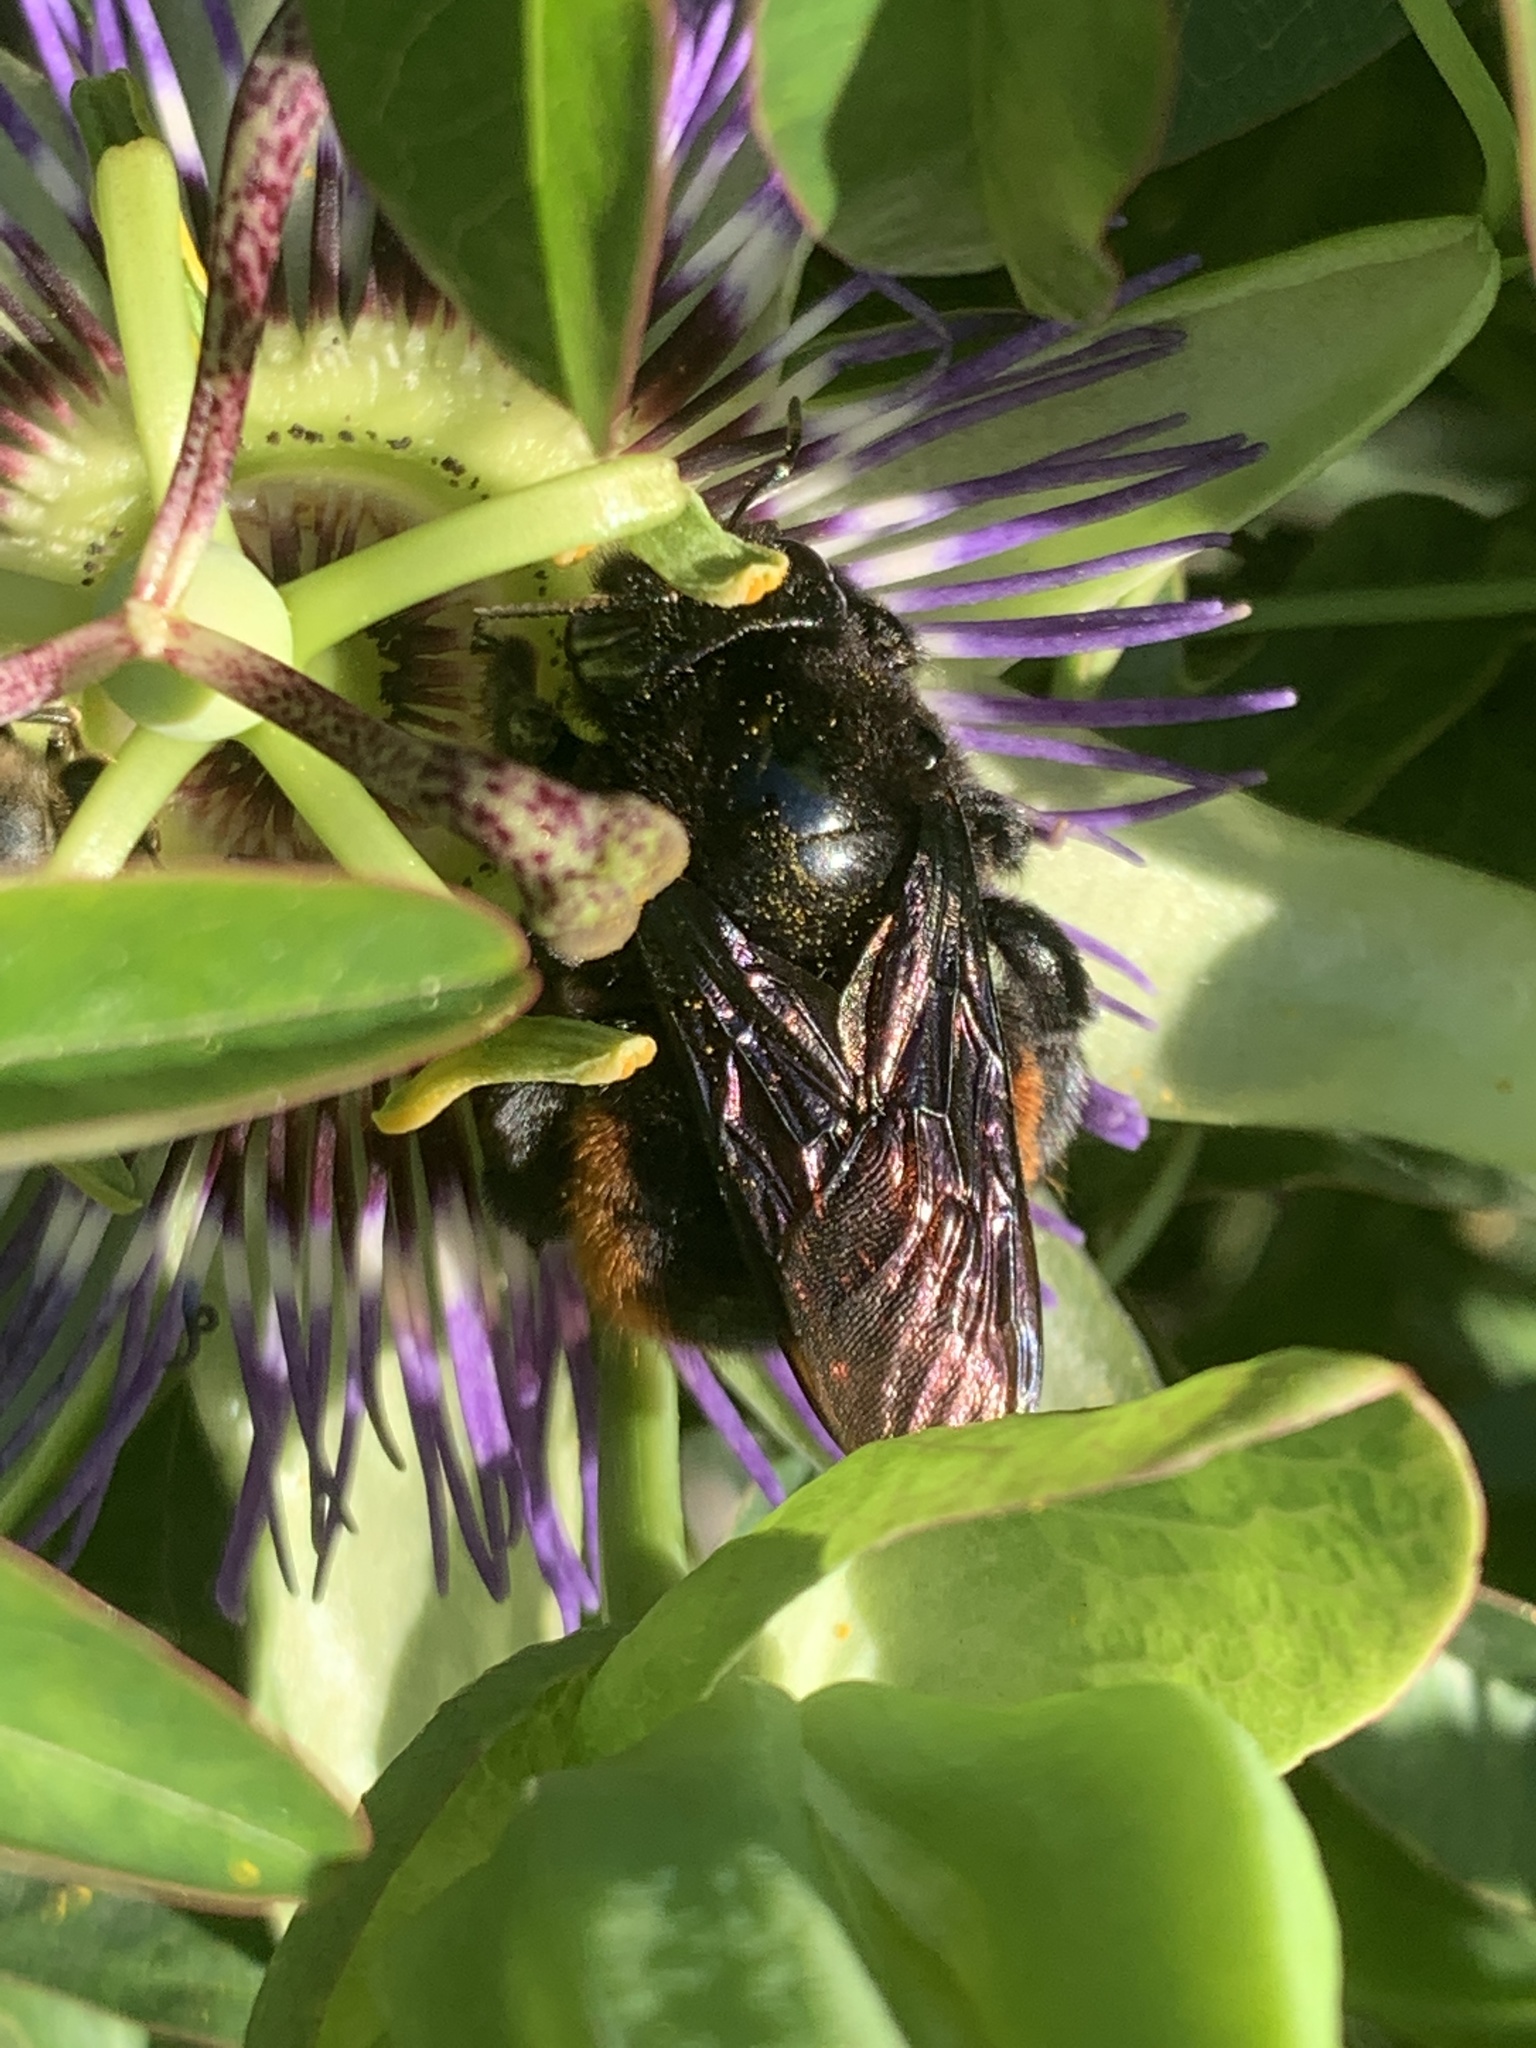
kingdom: Animalia
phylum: Arthropoda
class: Insecta
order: Hymenoptera
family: Apidae
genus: Xylocopa
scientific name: Xylocopa augusti
